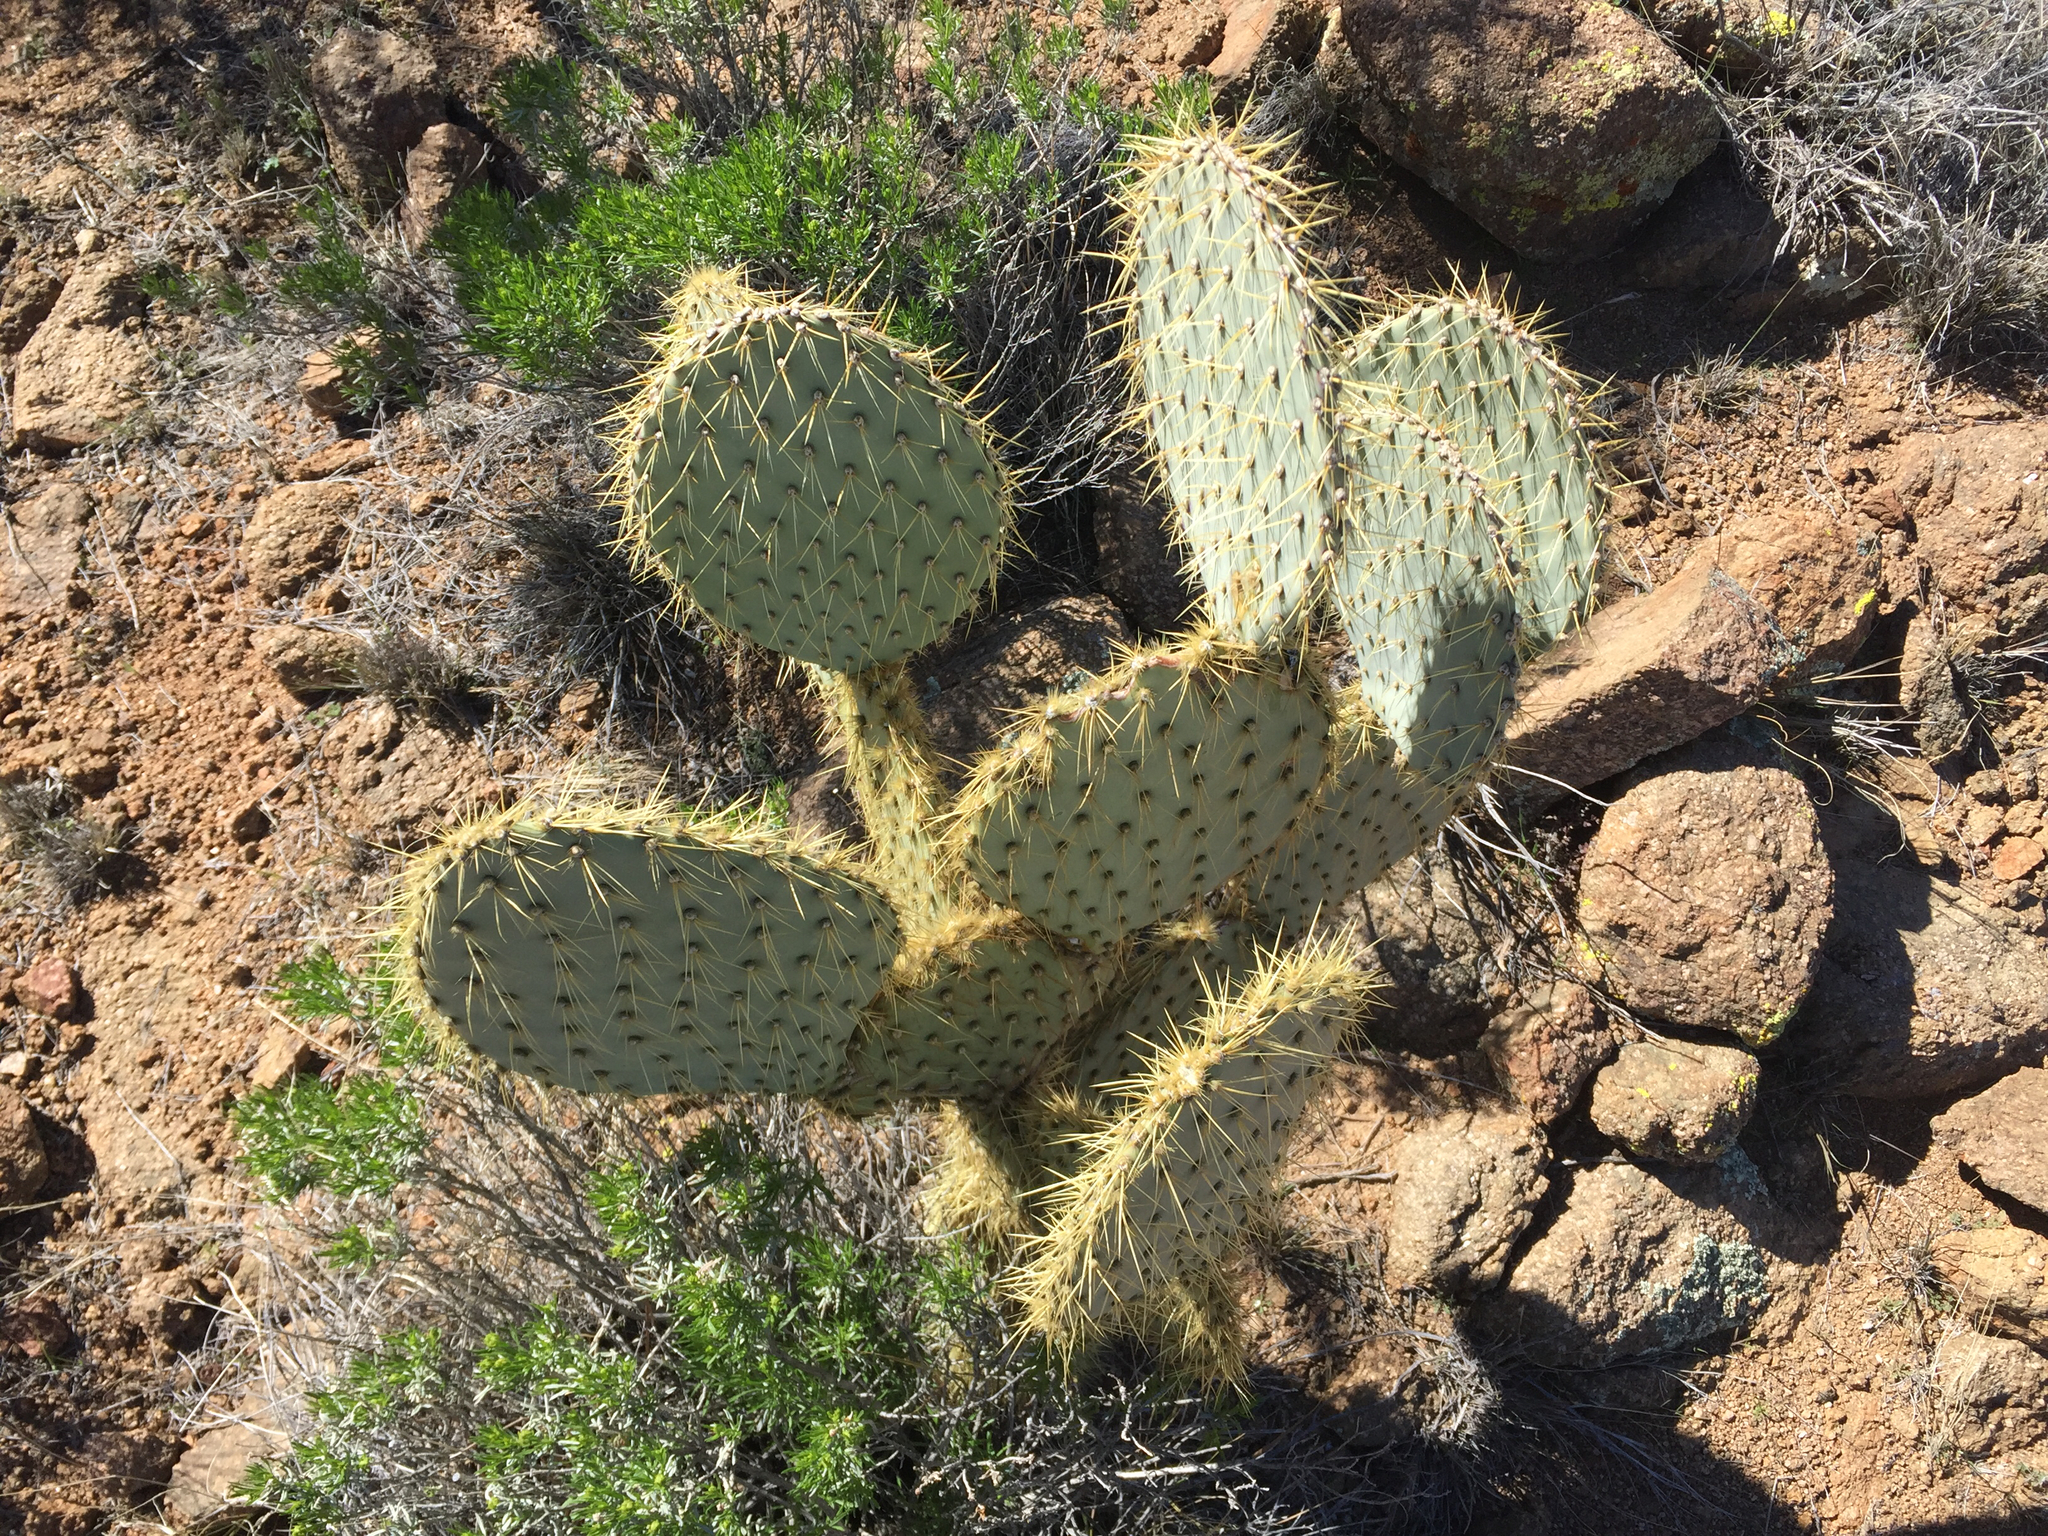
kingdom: Plantae
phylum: Tracheophyta
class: Magnoliopsida
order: Caryophyllales
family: Cactaceae
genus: Opuntia
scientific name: Opuntia chlorotica
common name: Dollar-joint prickly-pear
